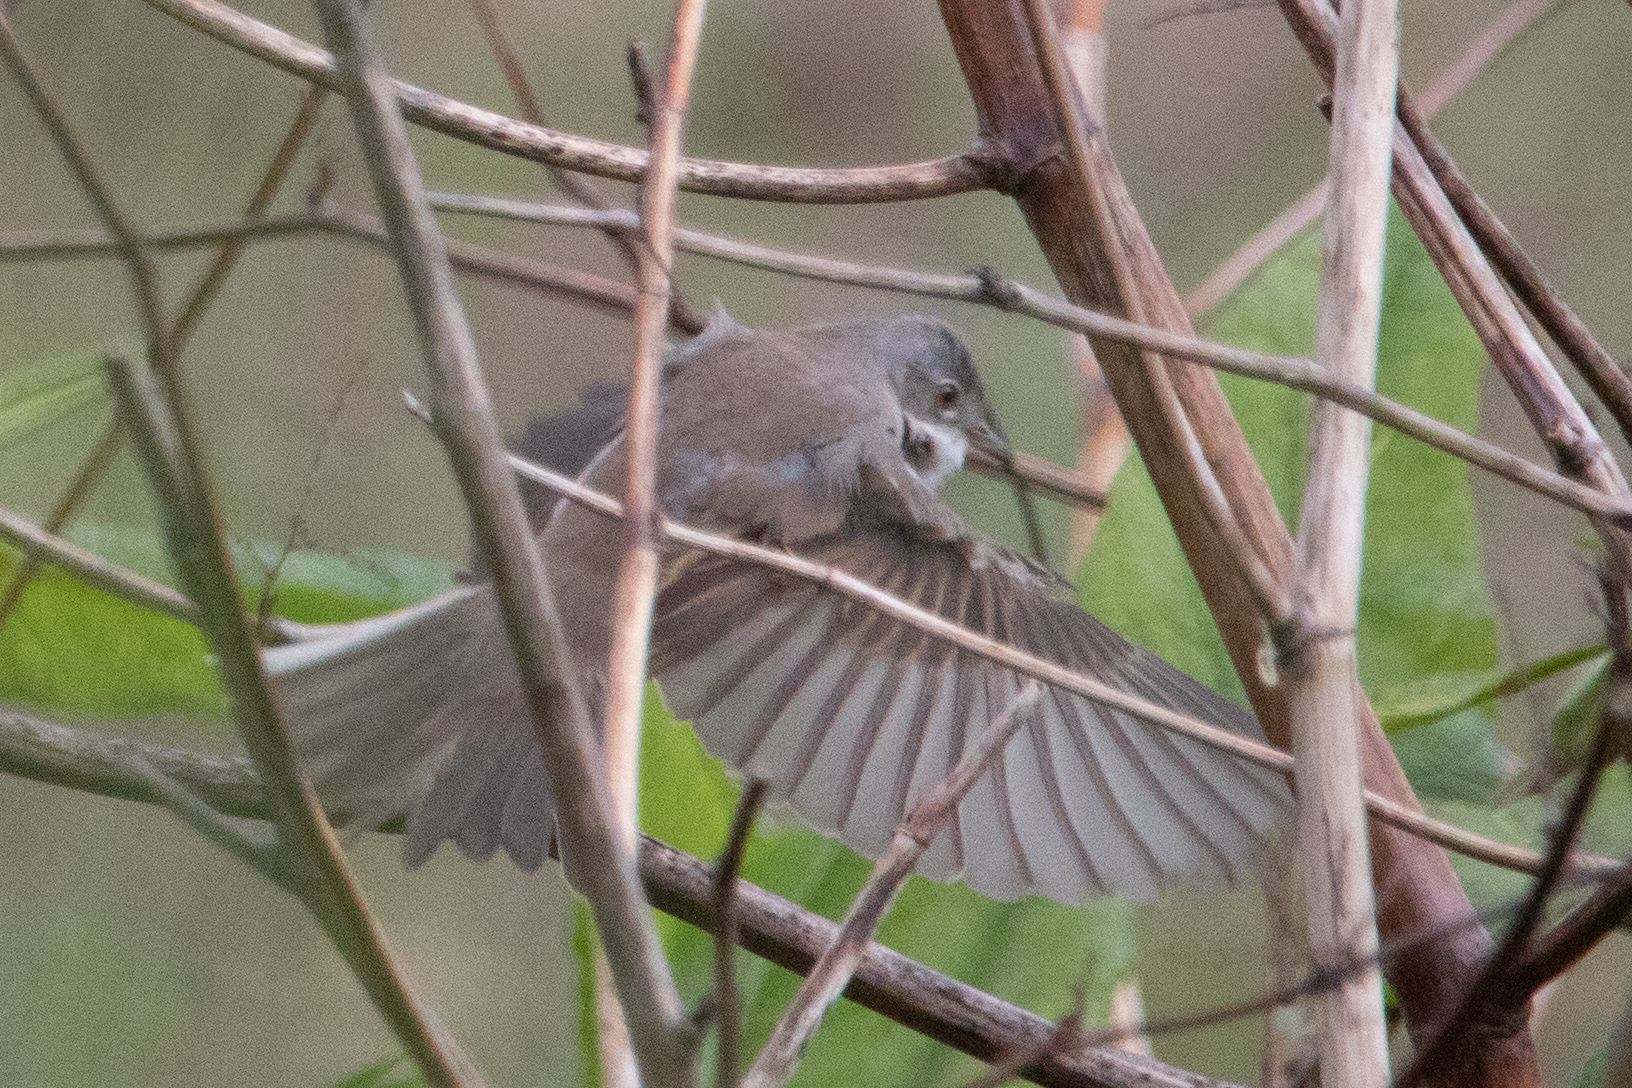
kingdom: Animalia
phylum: Chordata
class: Aves
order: Passeriformes
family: Sylviidae
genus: Sylvia
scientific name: Sylvia communis
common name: Common whitethroat
